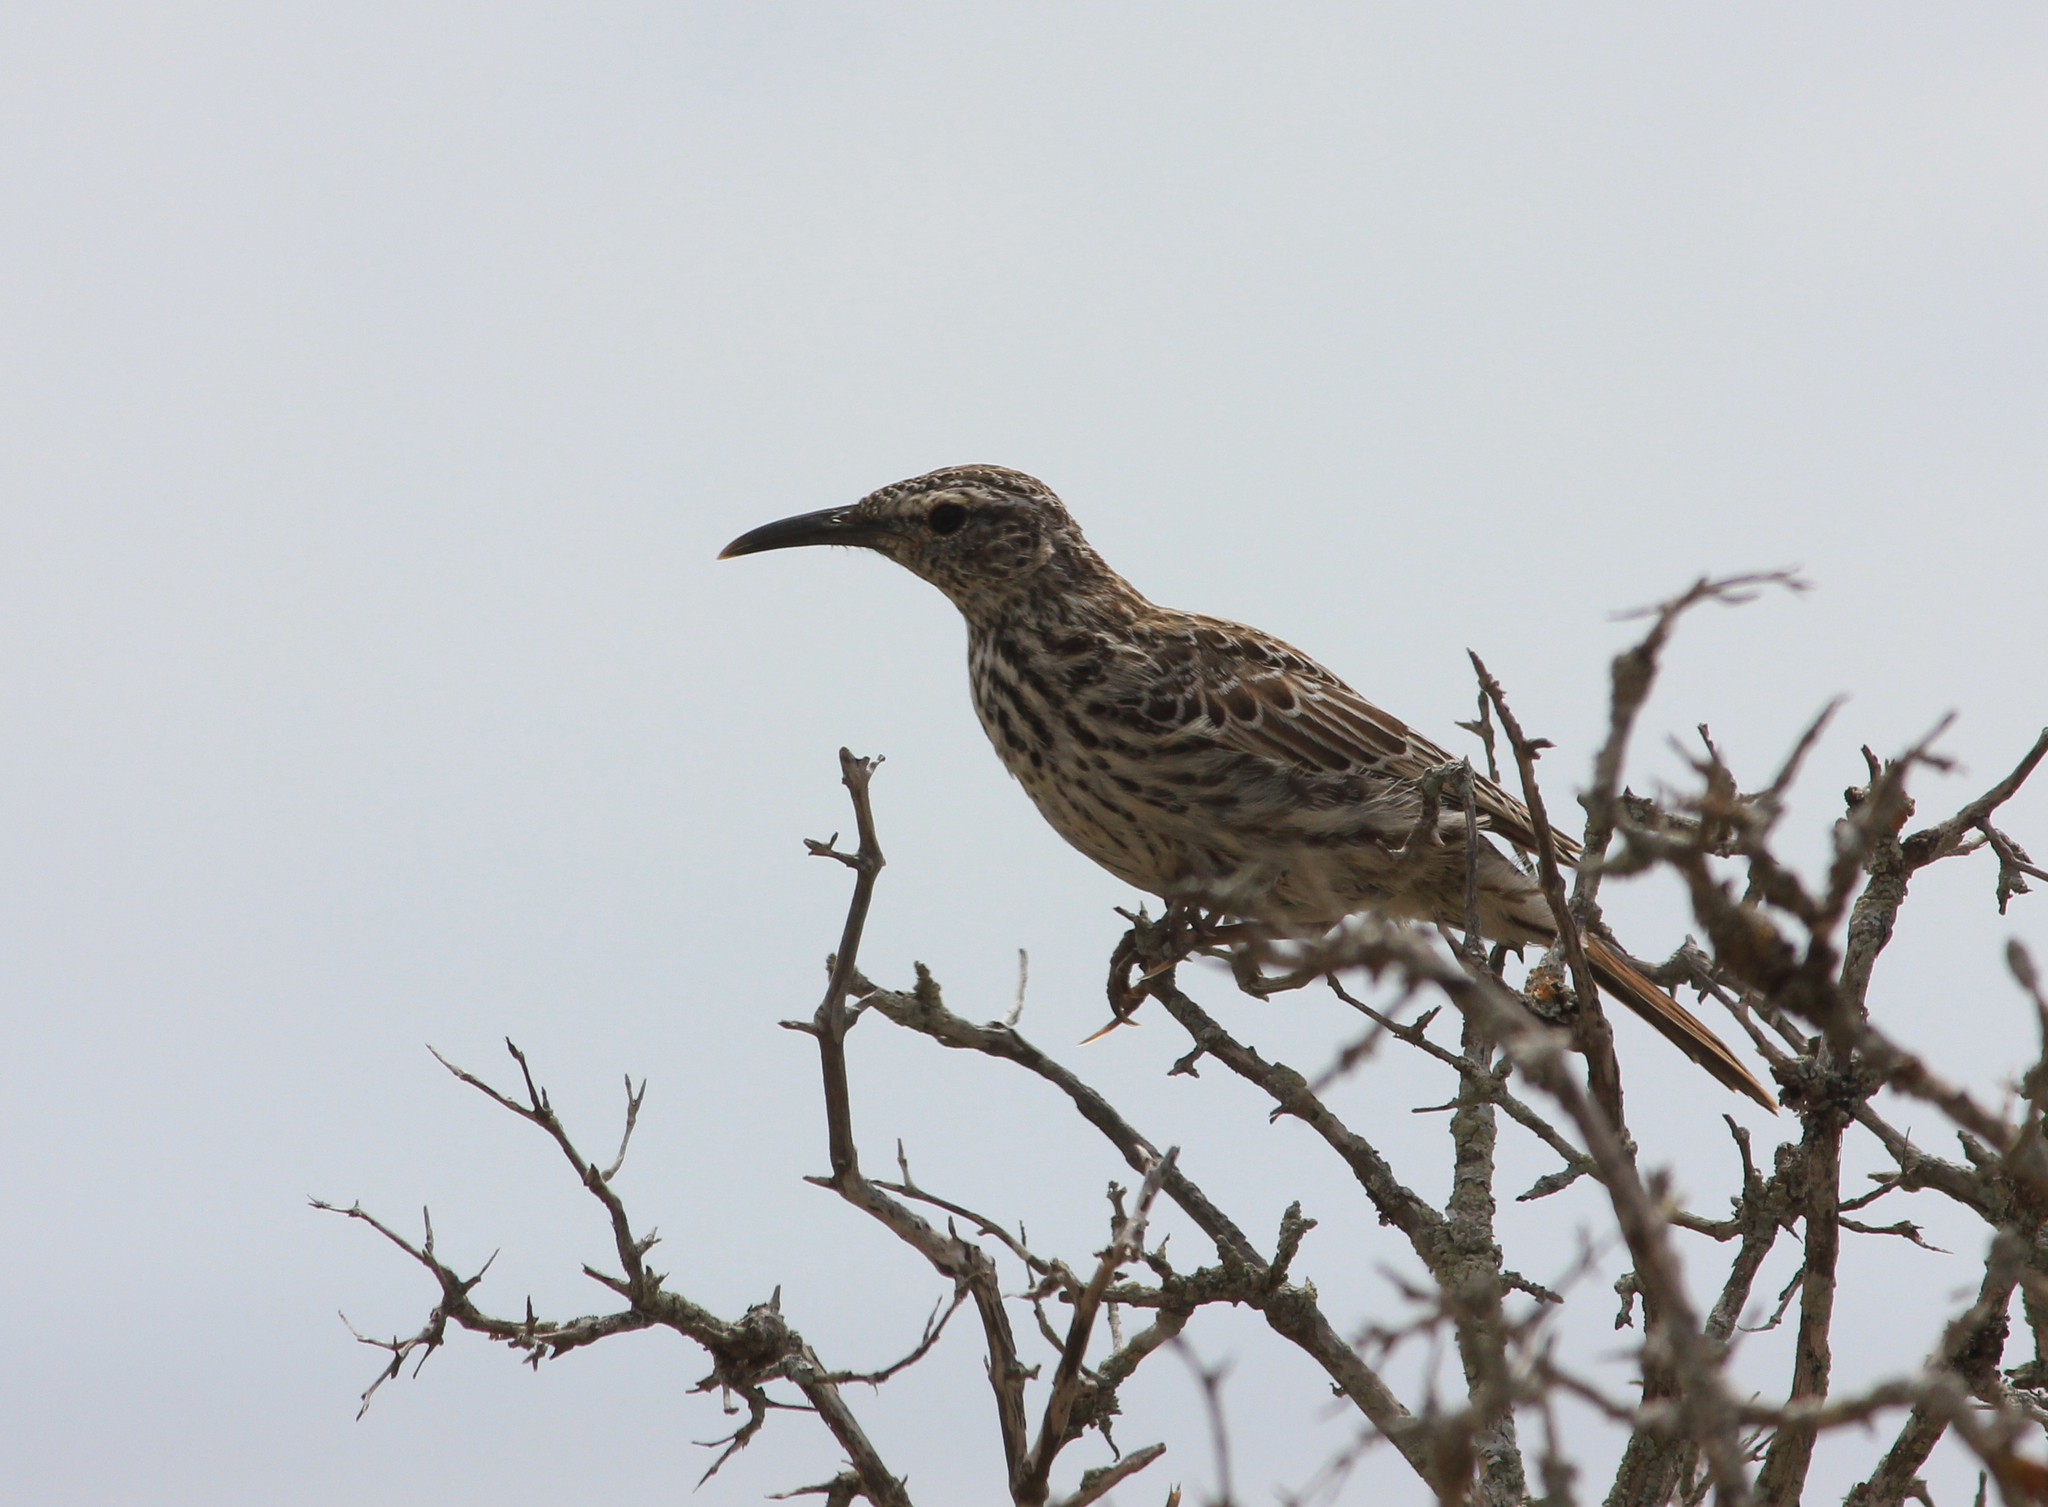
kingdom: Animalia
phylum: Chordata
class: Aves
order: Passeriformes
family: Alaudidae
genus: Certhilauda
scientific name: Certhilauda curvirostris
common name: Cape long-billed lark
